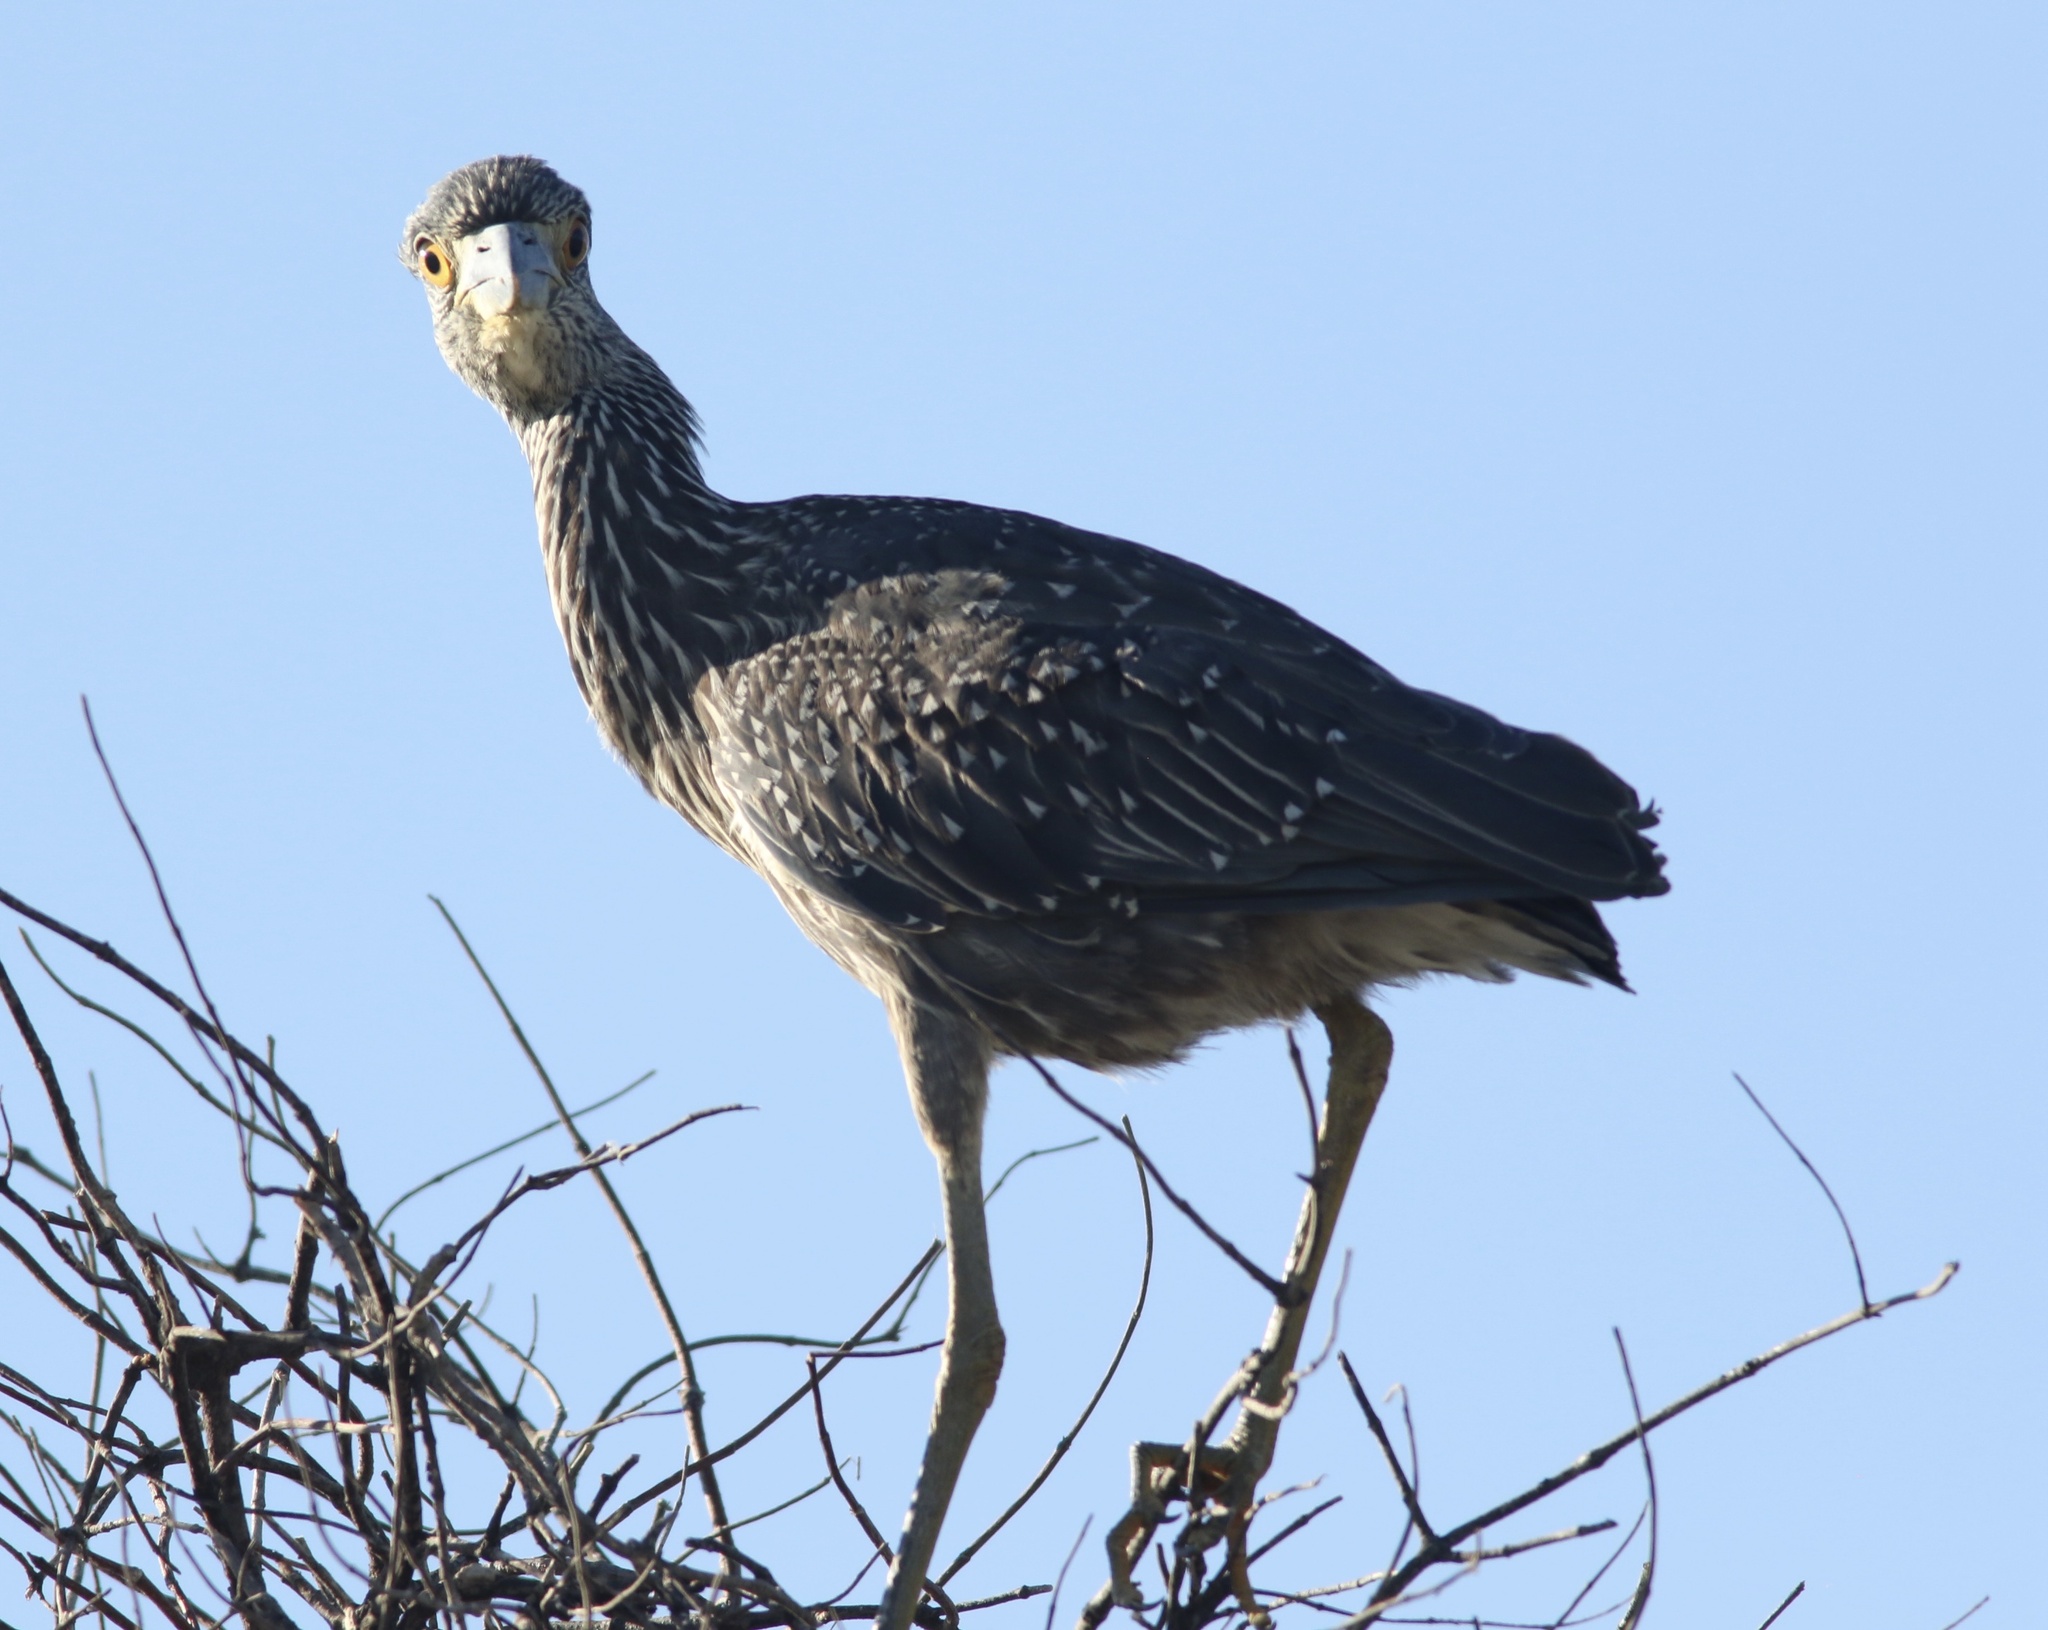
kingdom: Animalia
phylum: Chordata
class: Aves
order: Pelecaniformes
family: Ardeidae
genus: Nyctanassa
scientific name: Nyctanassa violacea
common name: Yellow-crowned night heron
